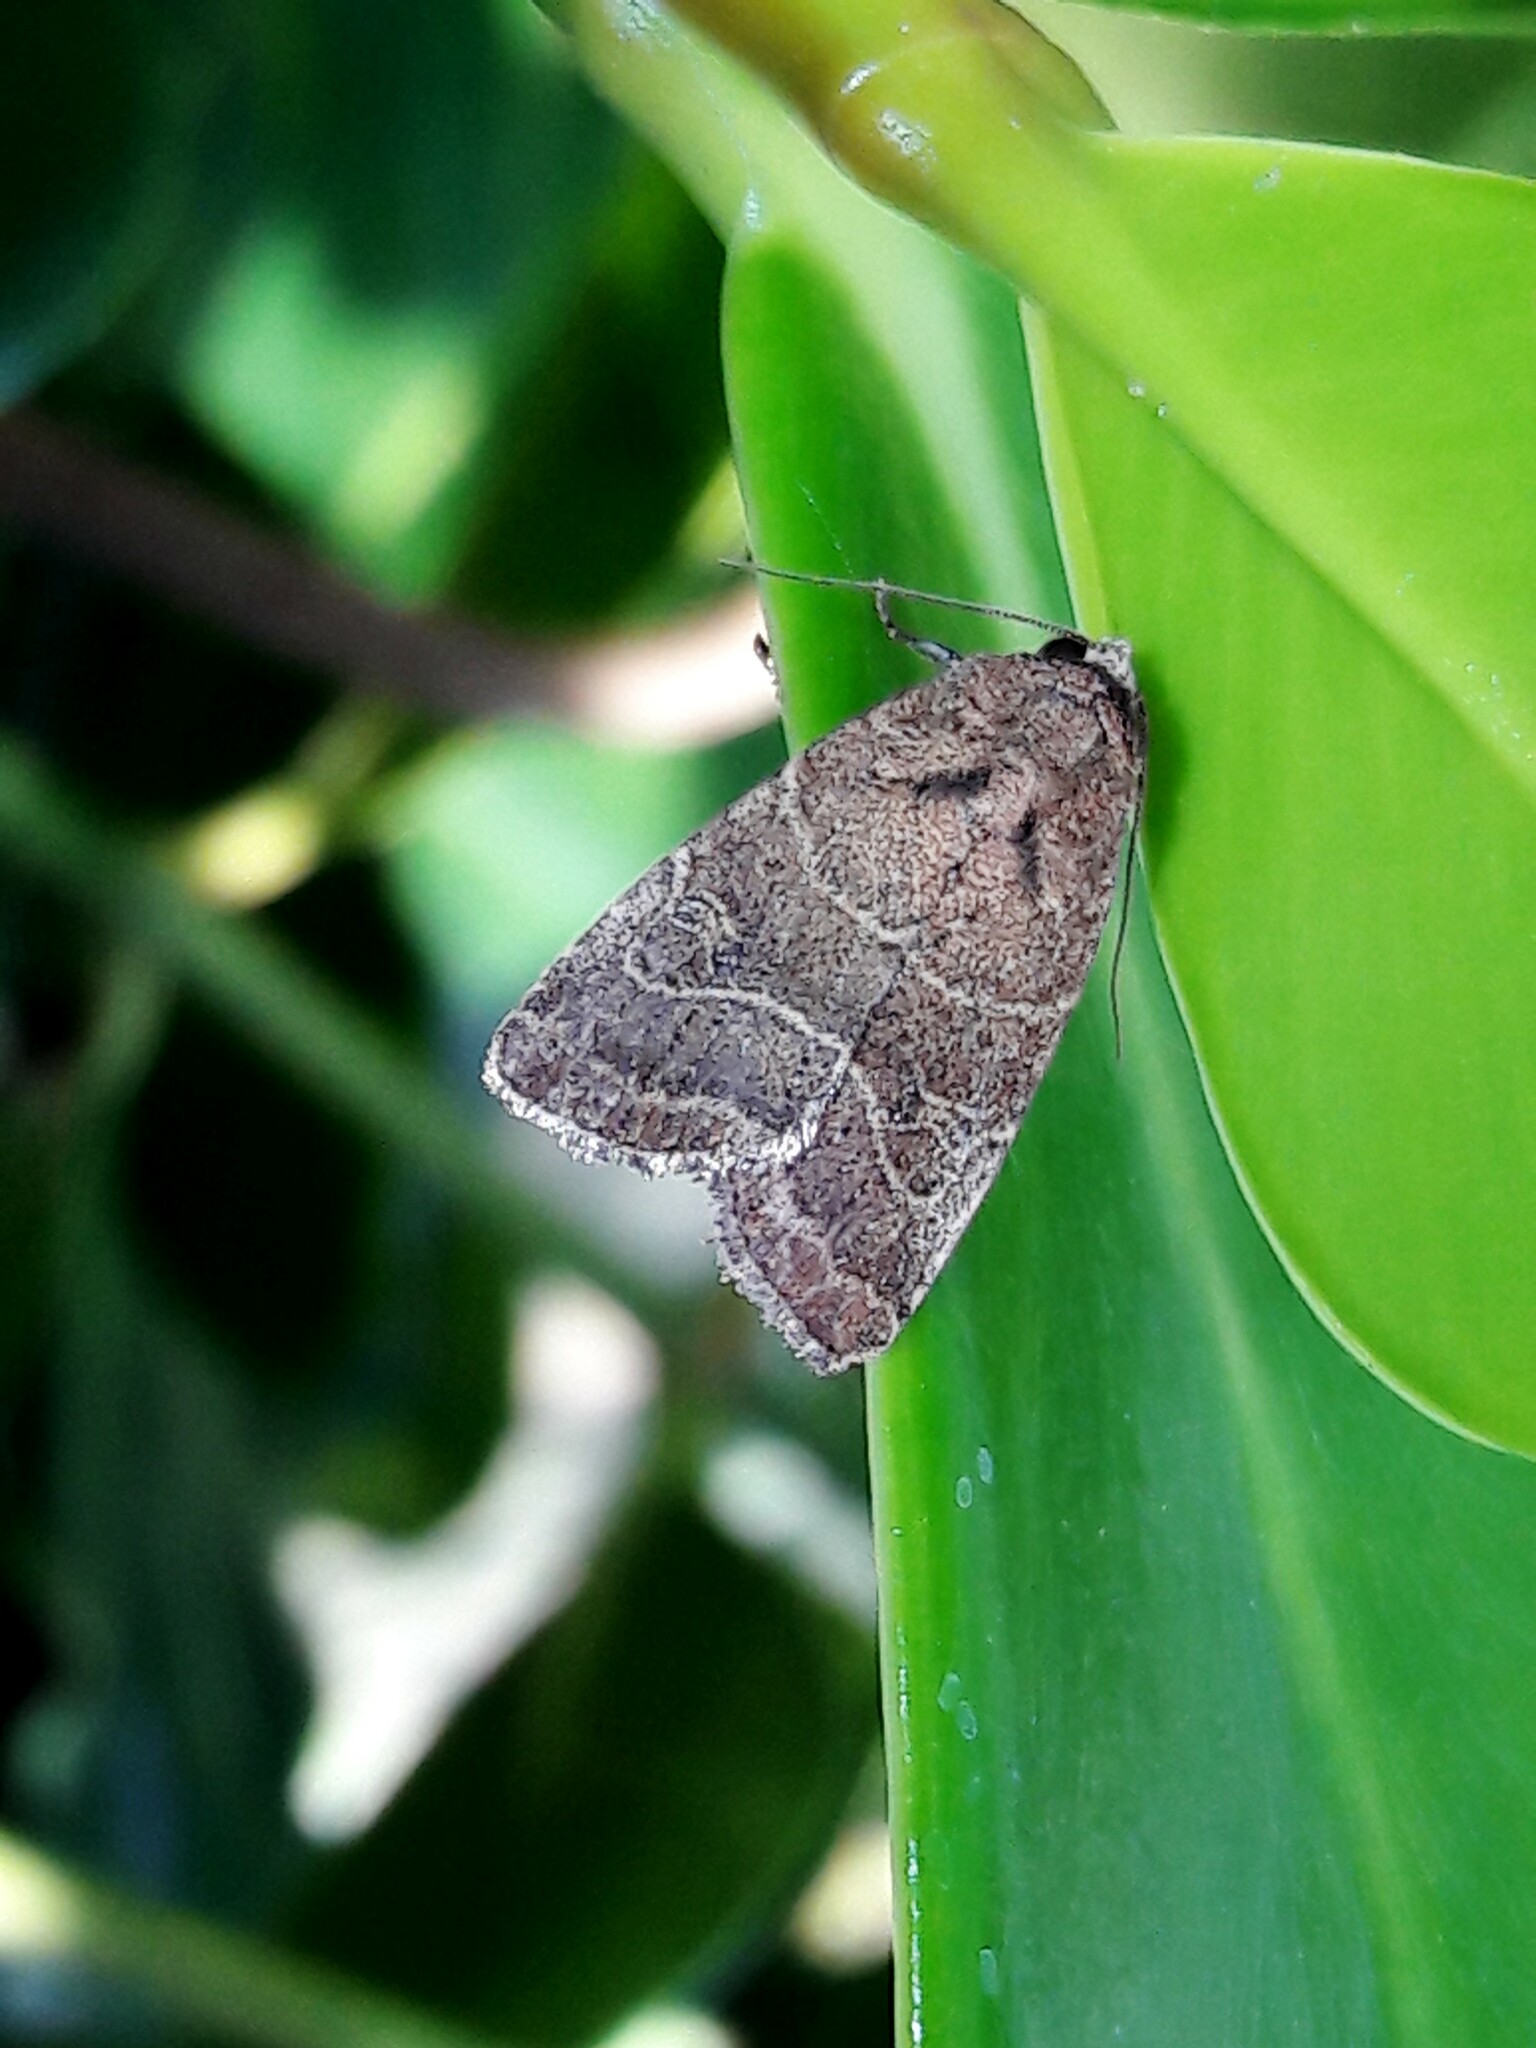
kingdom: Animalia
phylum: Arthropoda
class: Insecta
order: Lepidoptera
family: Noctuidae
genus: Elaphria
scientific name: Elaphria hypophaea
